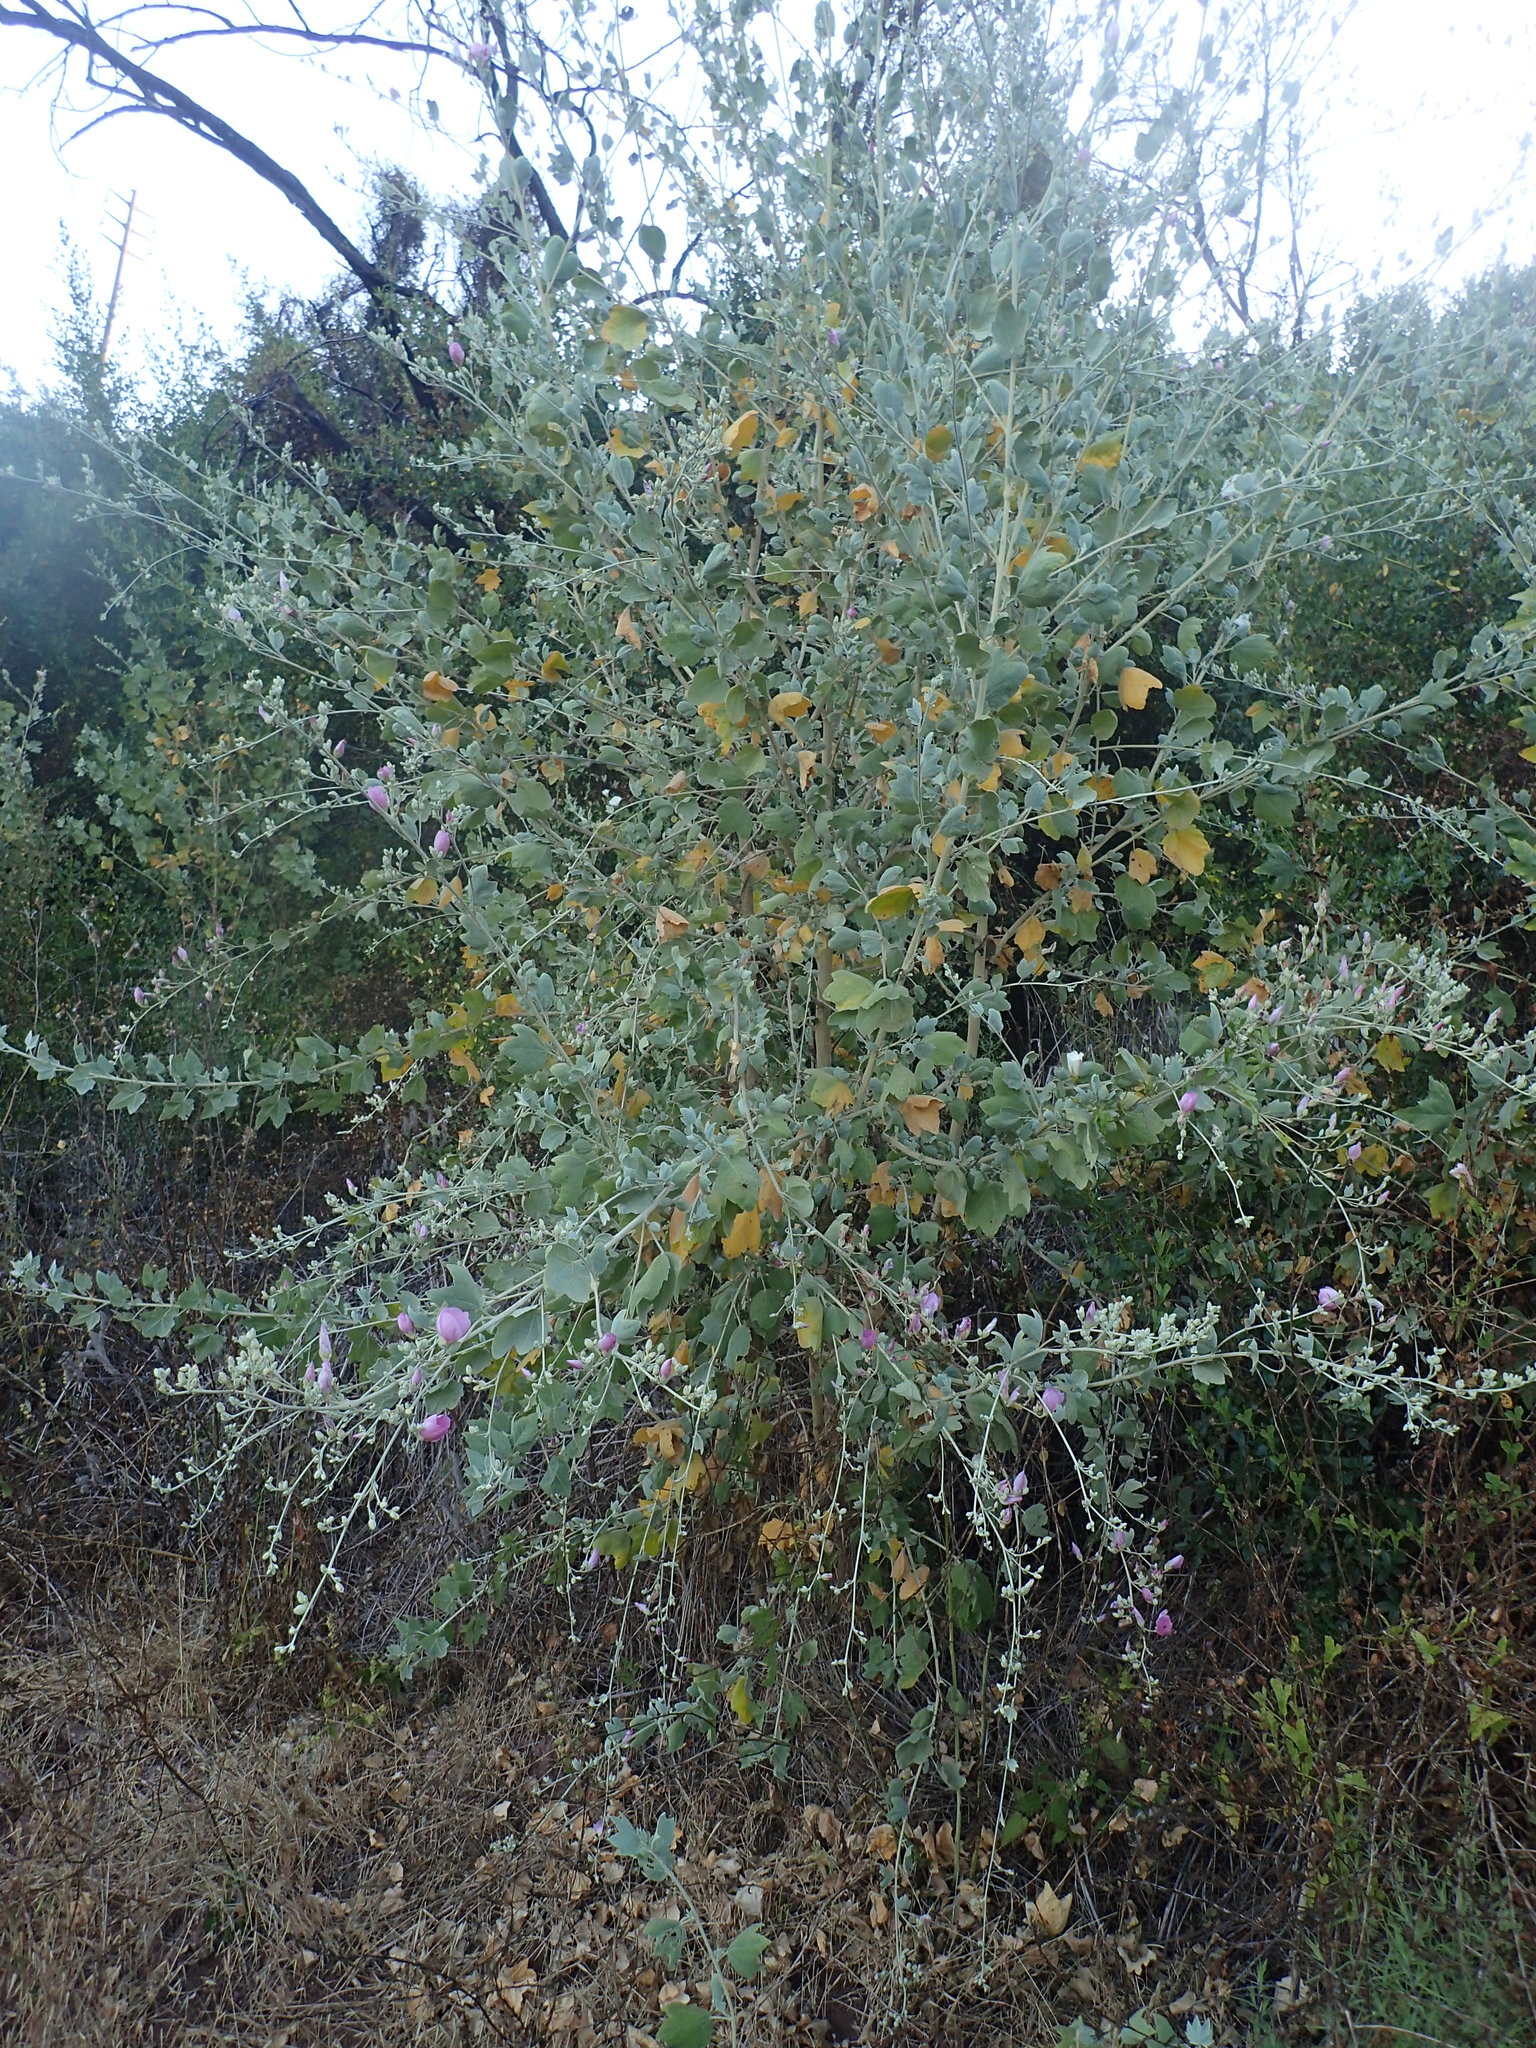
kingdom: Plantae
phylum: Tracheophyta
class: Magnoliopsida
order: Malvales
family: Malvaceae
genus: Malacothamnus
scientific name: Malacothamnus fasciculatus
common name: Sant cruz island bush-mallow
